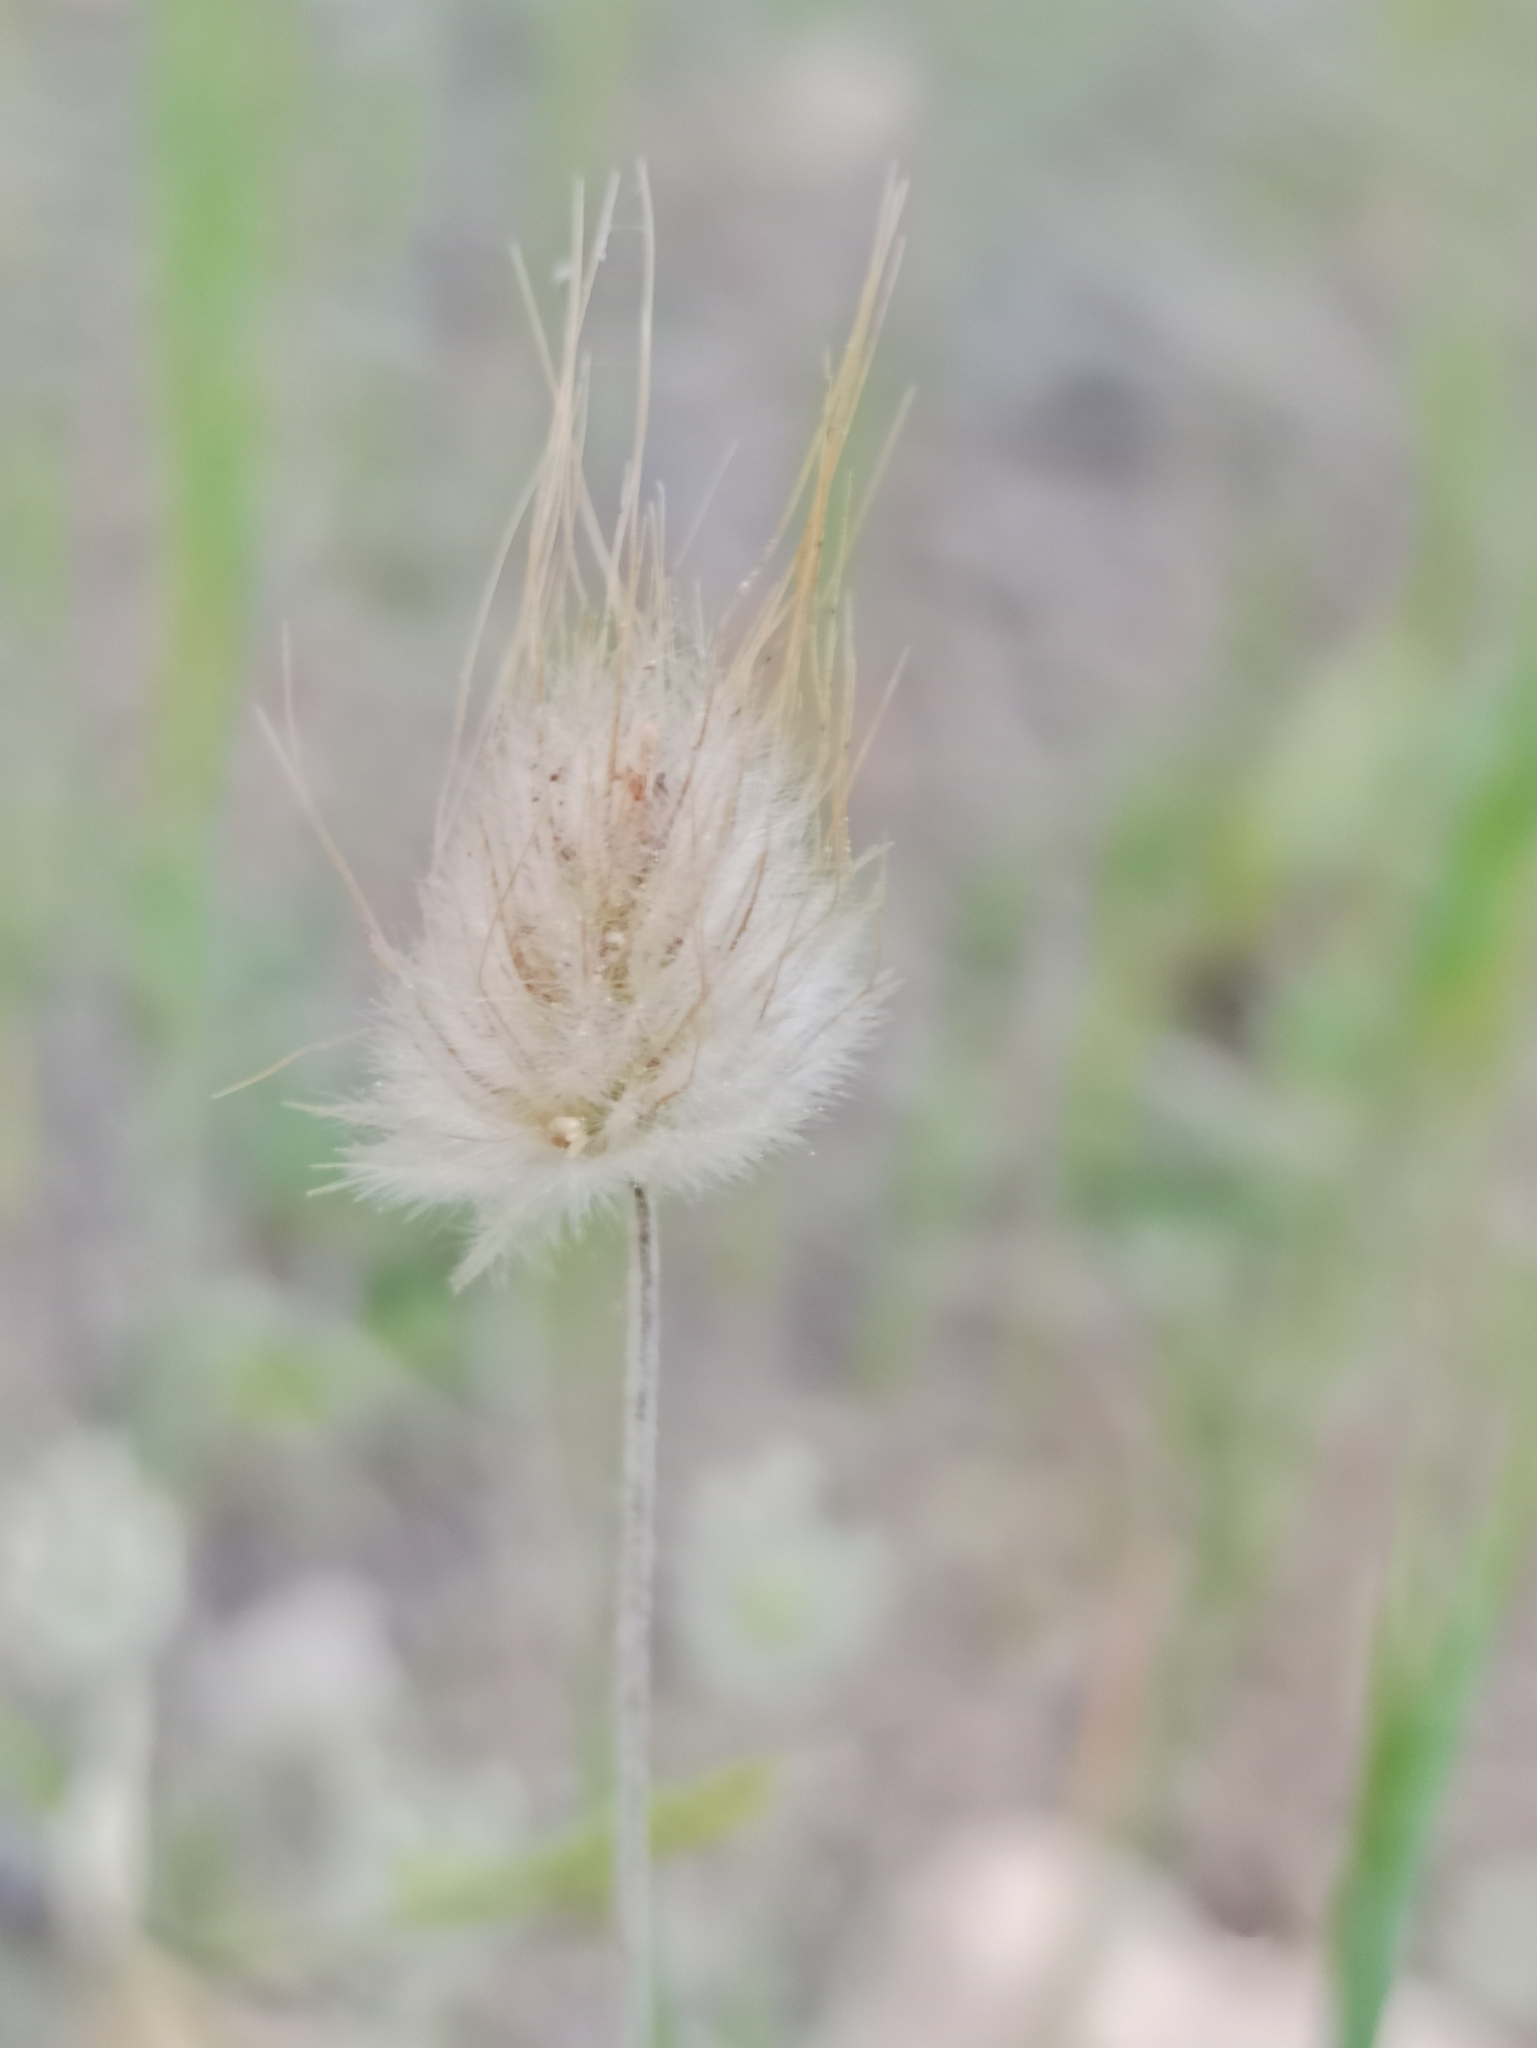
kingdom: Plantae
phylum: Tracheophyta
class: Liliopsida
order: Poales
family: Poaceae
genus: Lagurus
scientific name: Lagurus ovatus
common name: Hare's-tail
